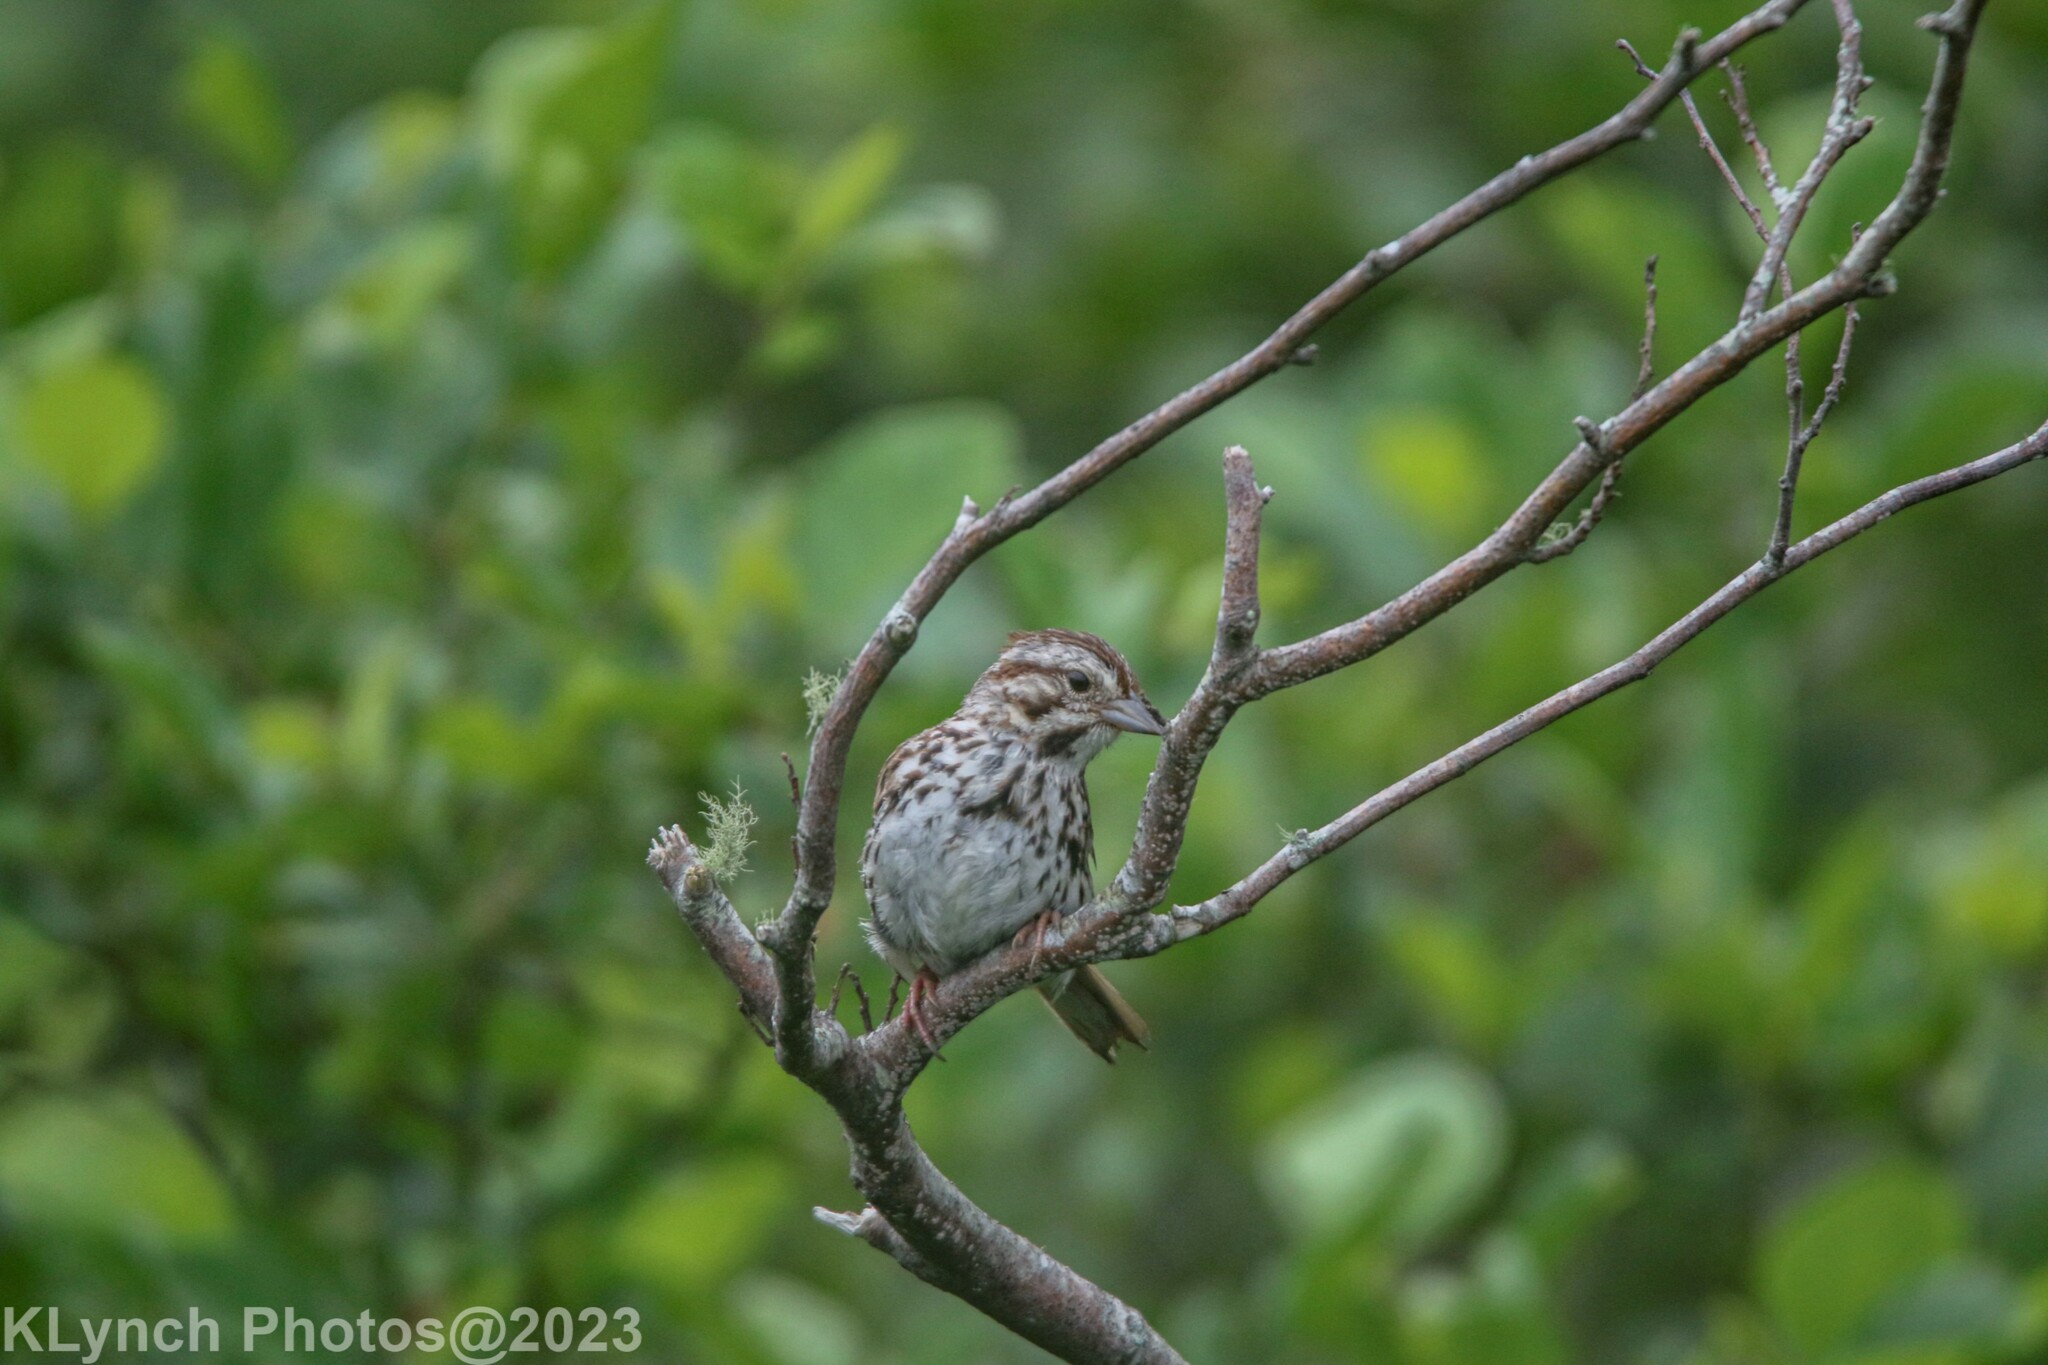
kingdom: Animalia
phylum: Chordata
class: Aves
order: Passeriformes
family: Passerellidae
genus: Melospiza
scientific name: Melospiza melodia
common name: Song sparrow
